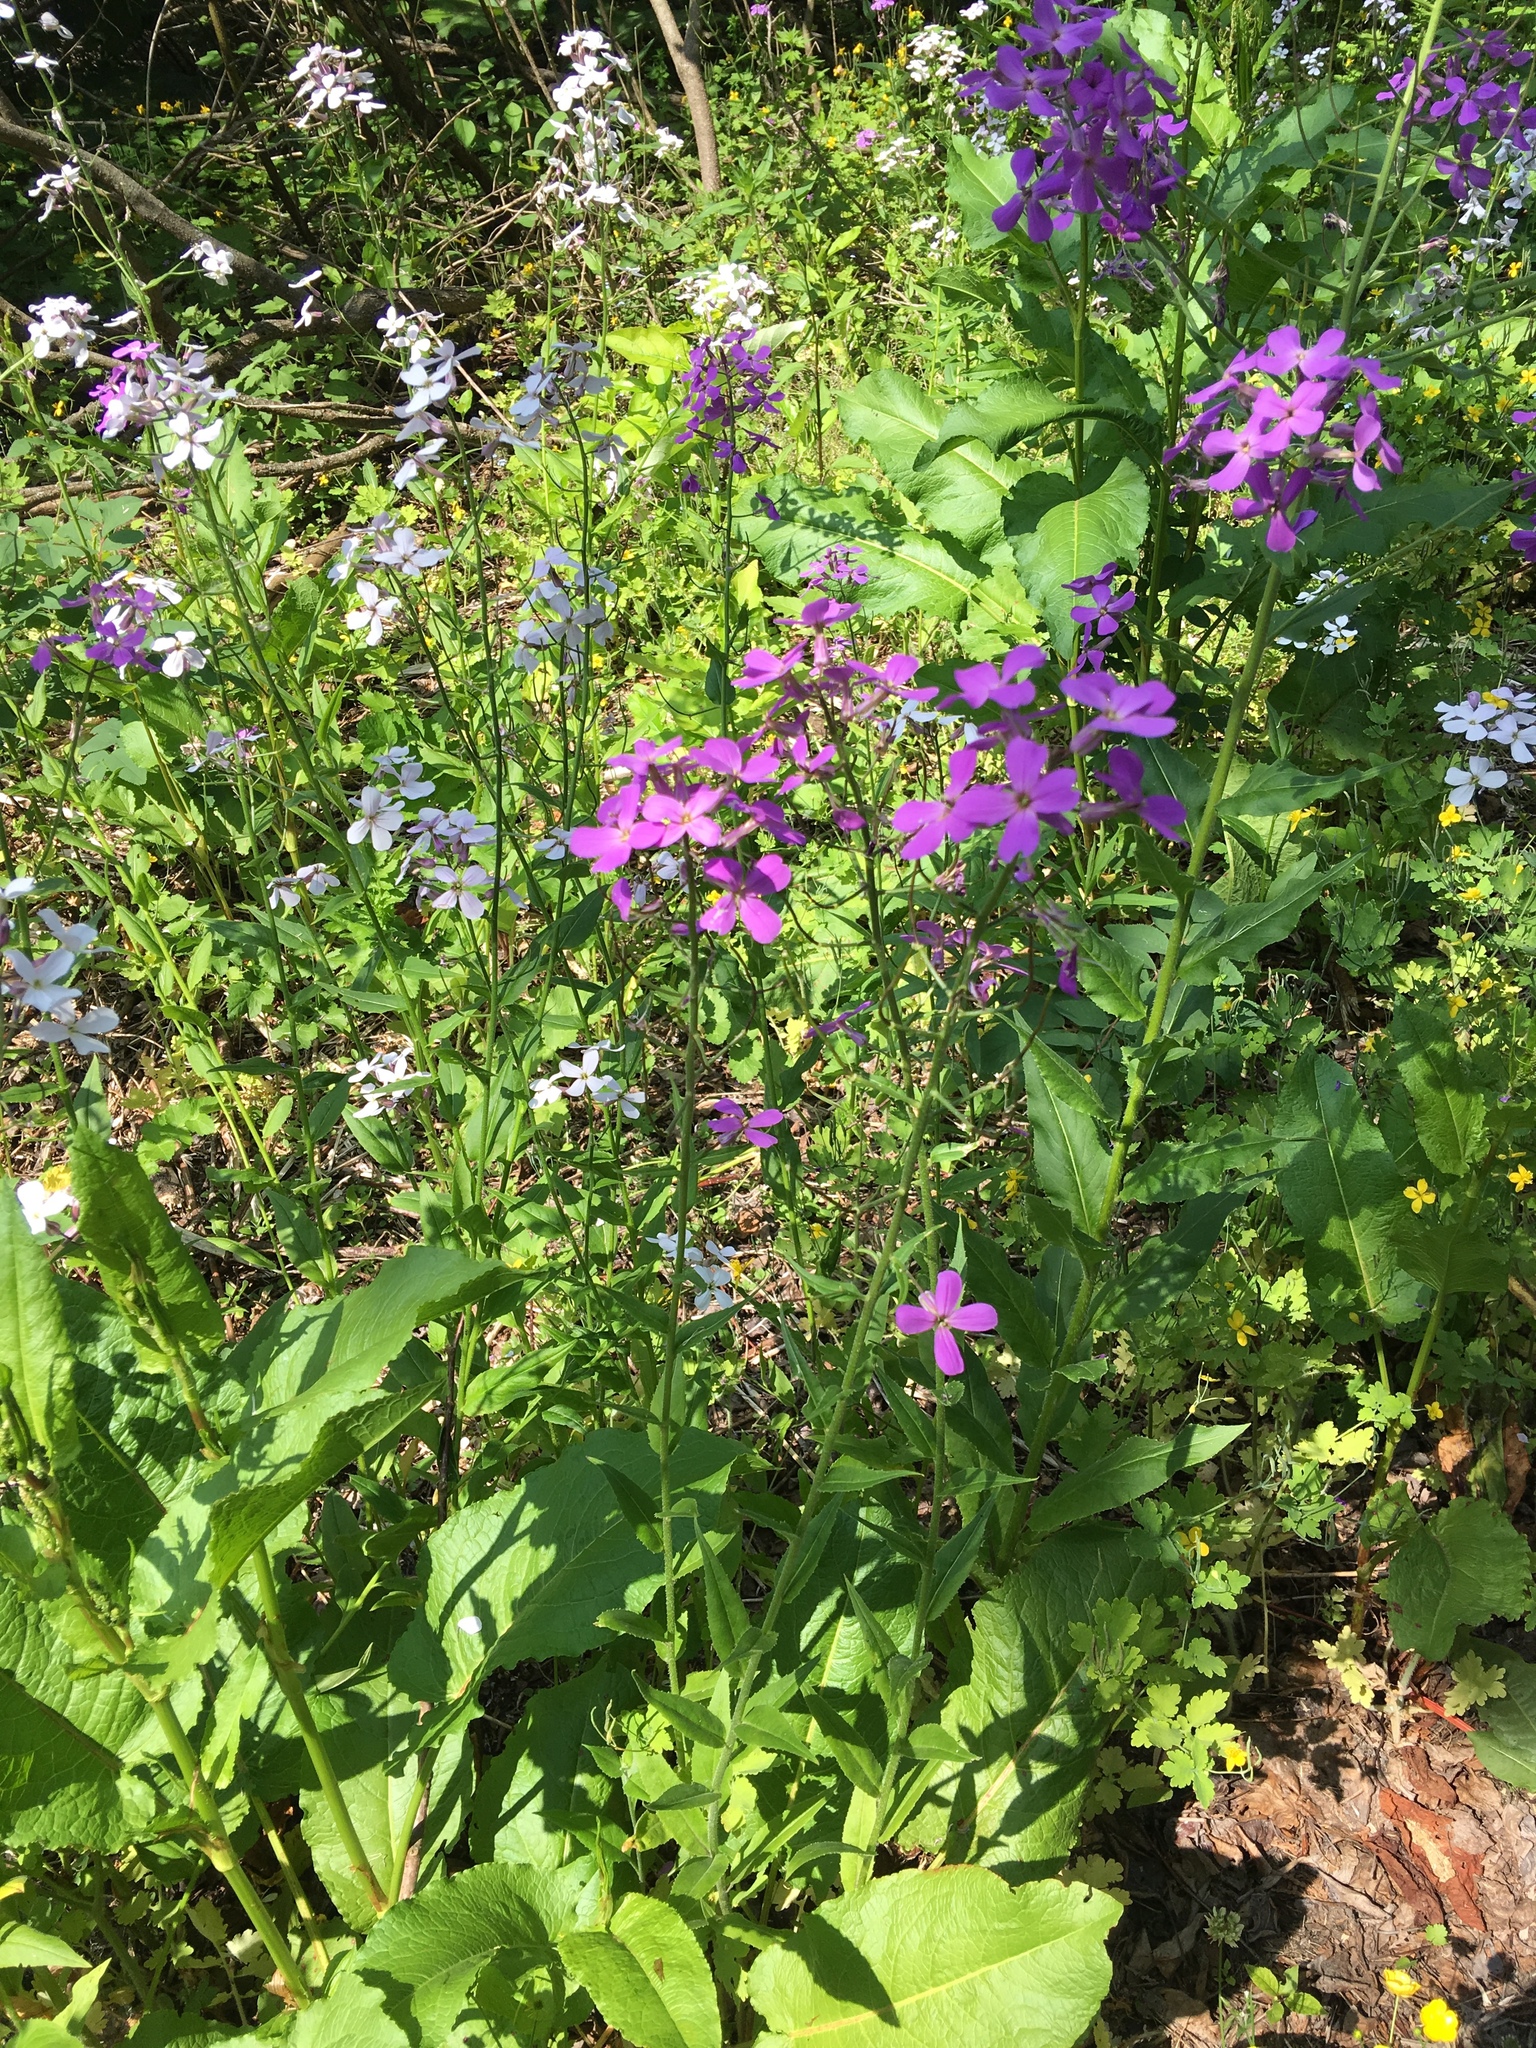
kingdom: Plantae
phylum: Tracheophyta
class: Magnoliopsida
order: Brassicales
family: Brassicaceae
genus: Hesperis
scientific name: Hesperis matronalis
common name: Dame's-violet
